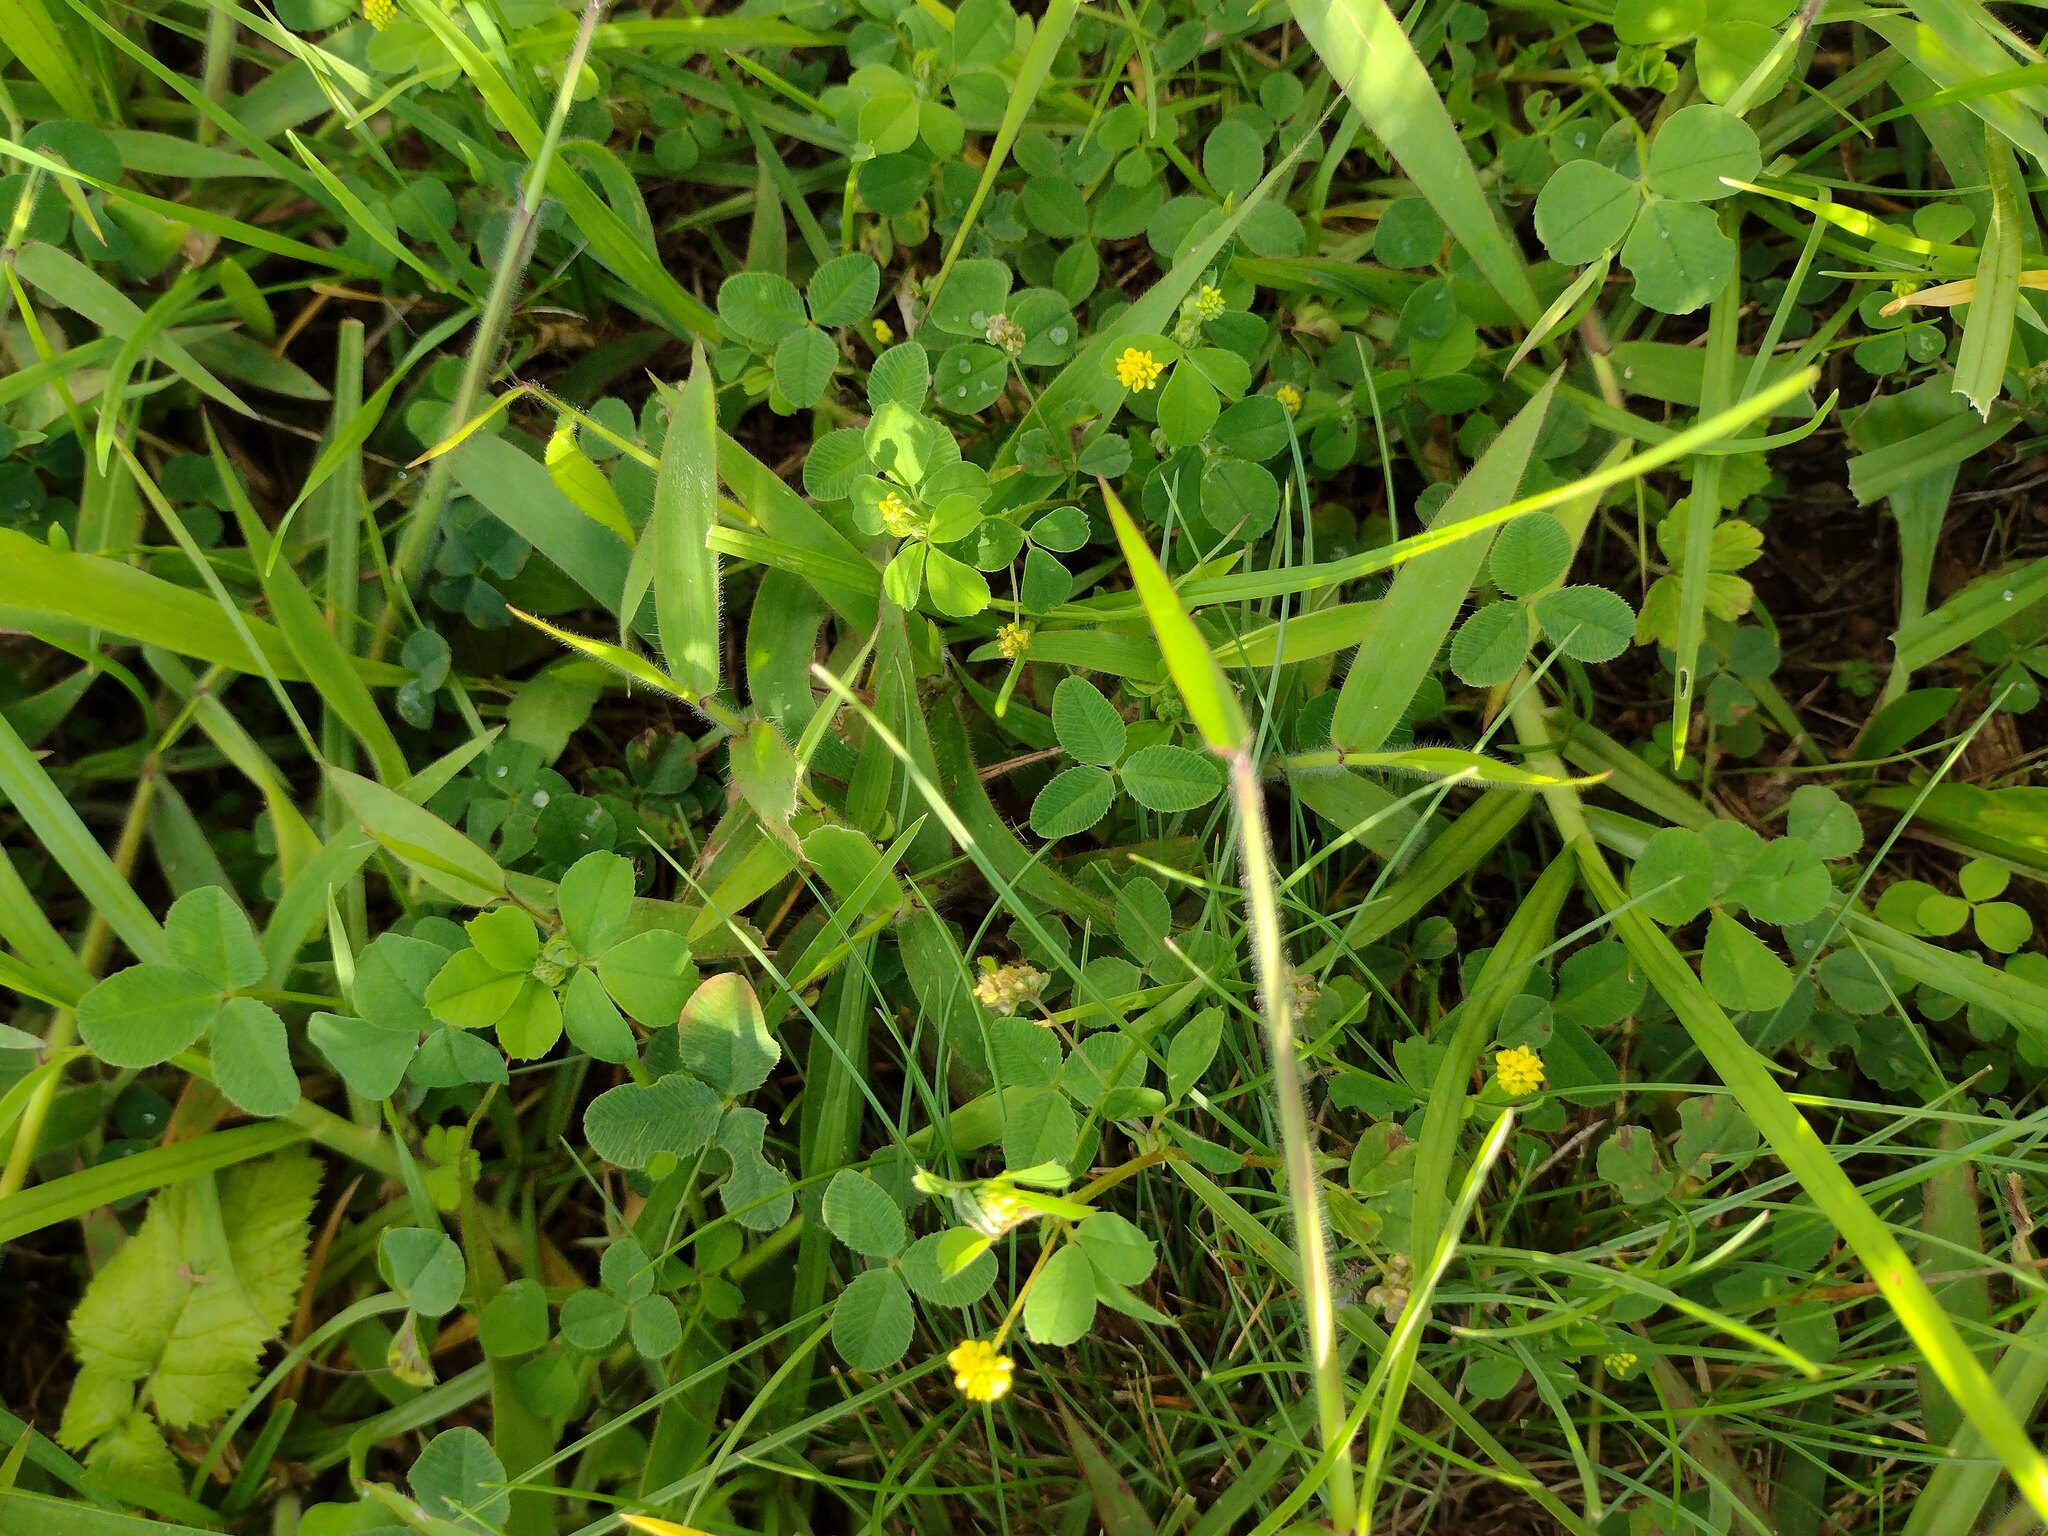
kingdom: Plantae
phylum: Tracheophyta
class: Magnoliopsida
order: Fabales
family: Fabaceae
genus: Medicago
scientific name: Medicago lupulina
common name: Black medick
